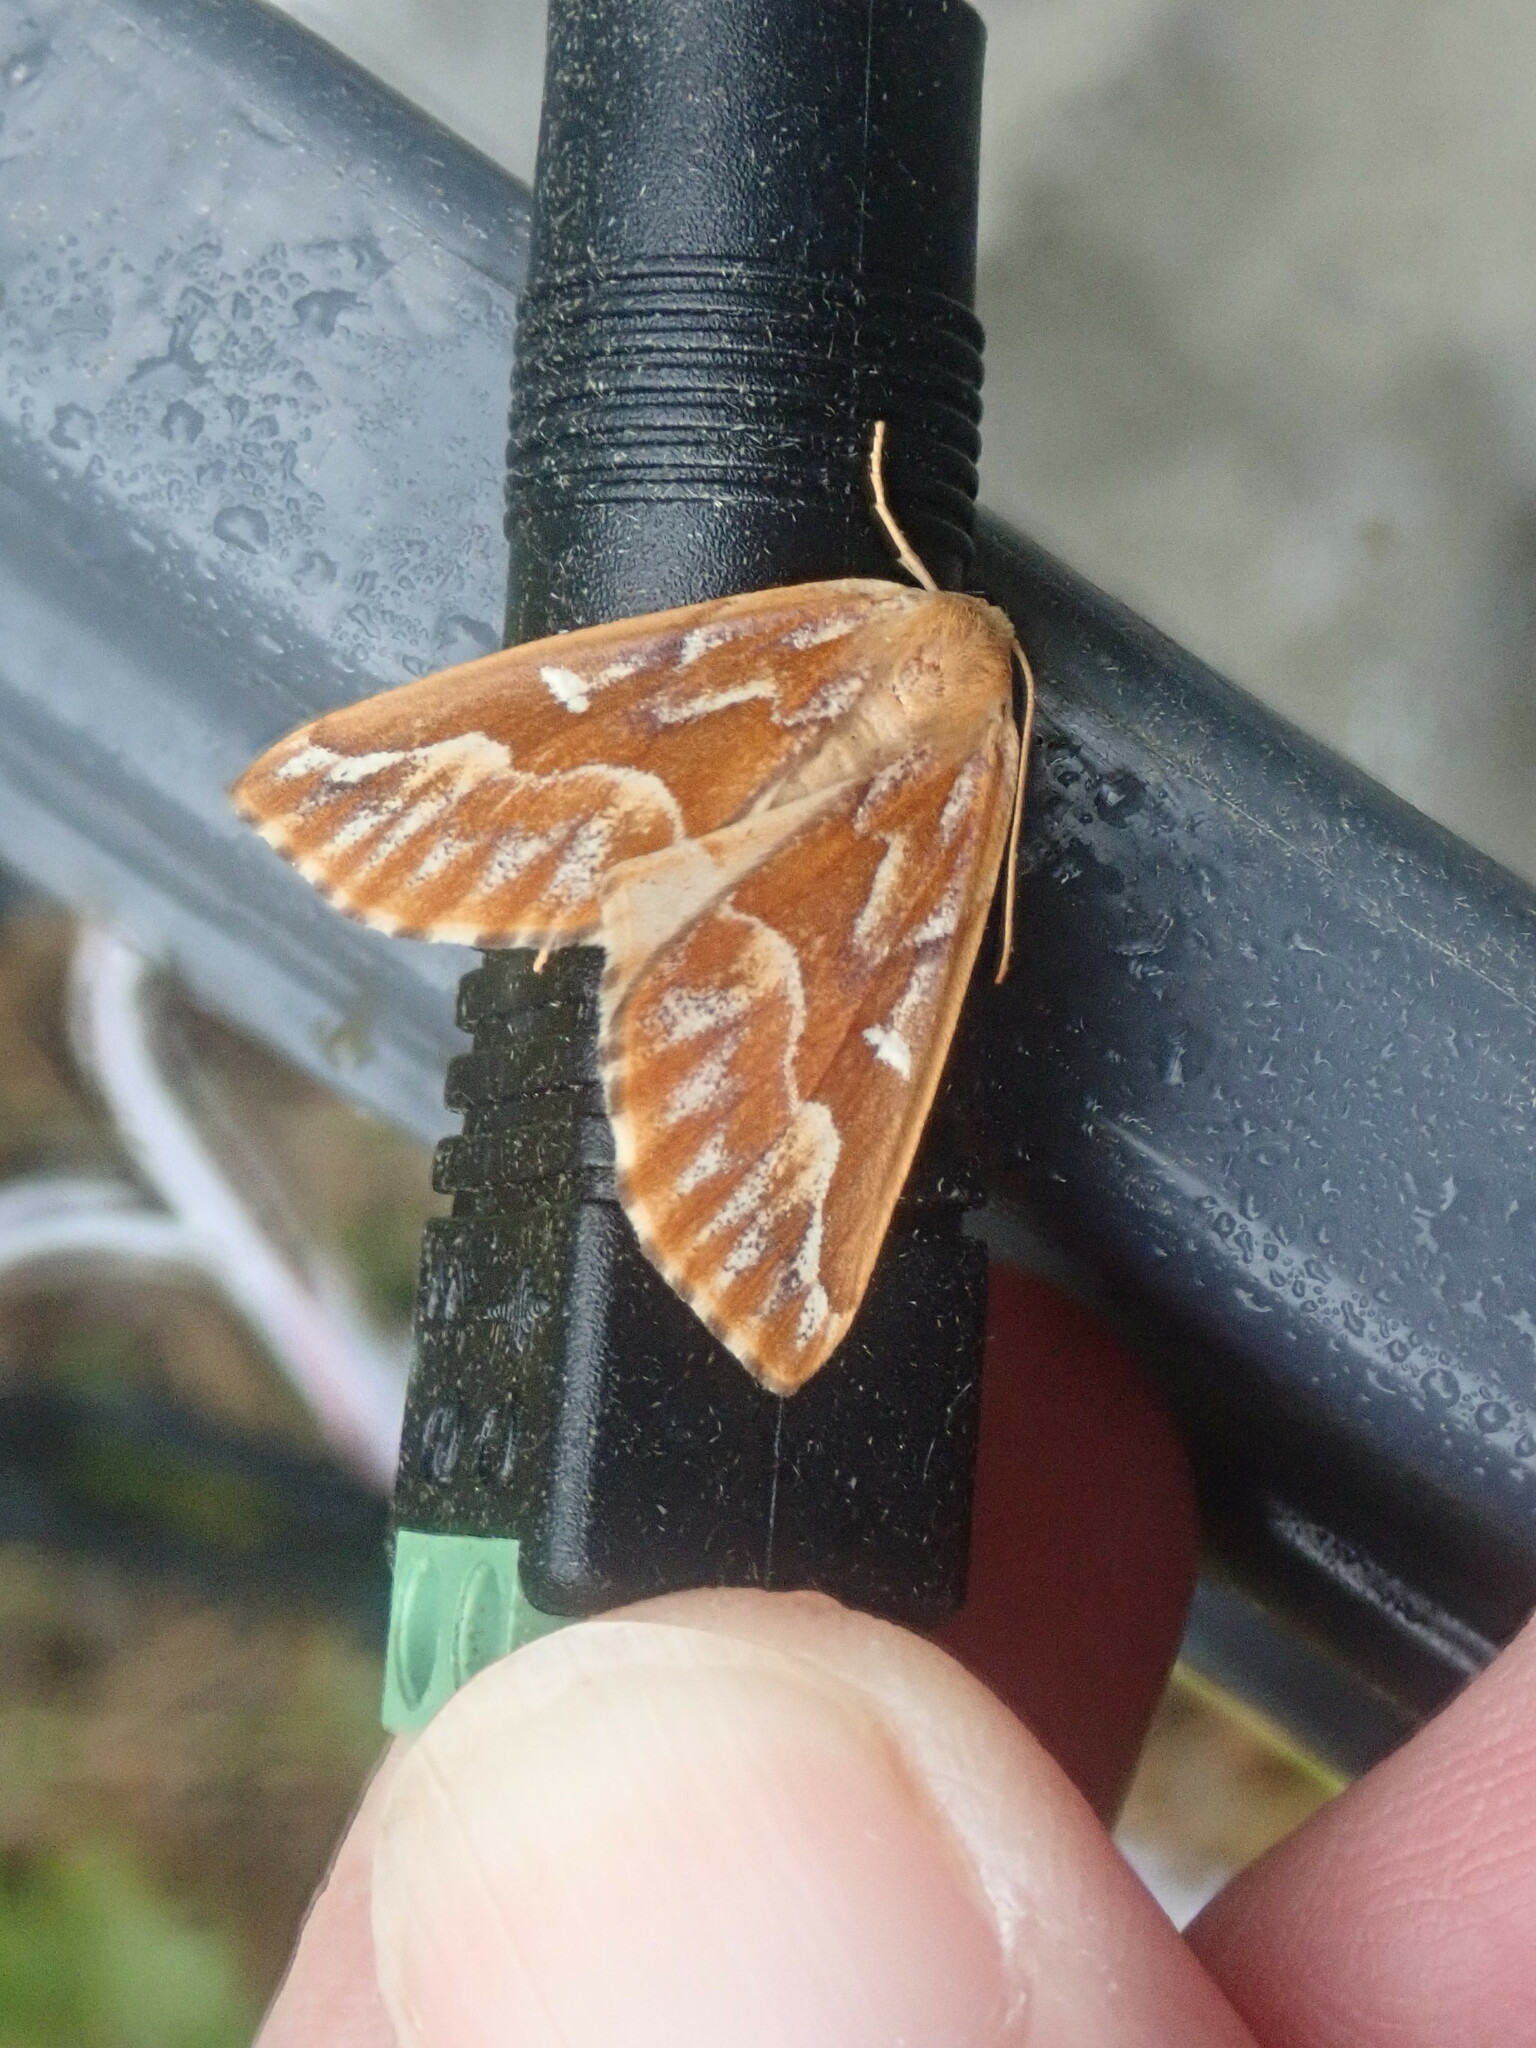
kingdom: Animalia
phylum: Arthropoda
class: Insecta
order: Lepidoptera
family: Geometridae
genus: Caripeta
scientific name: Caripeta piniata
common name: Northern pine looper moth
